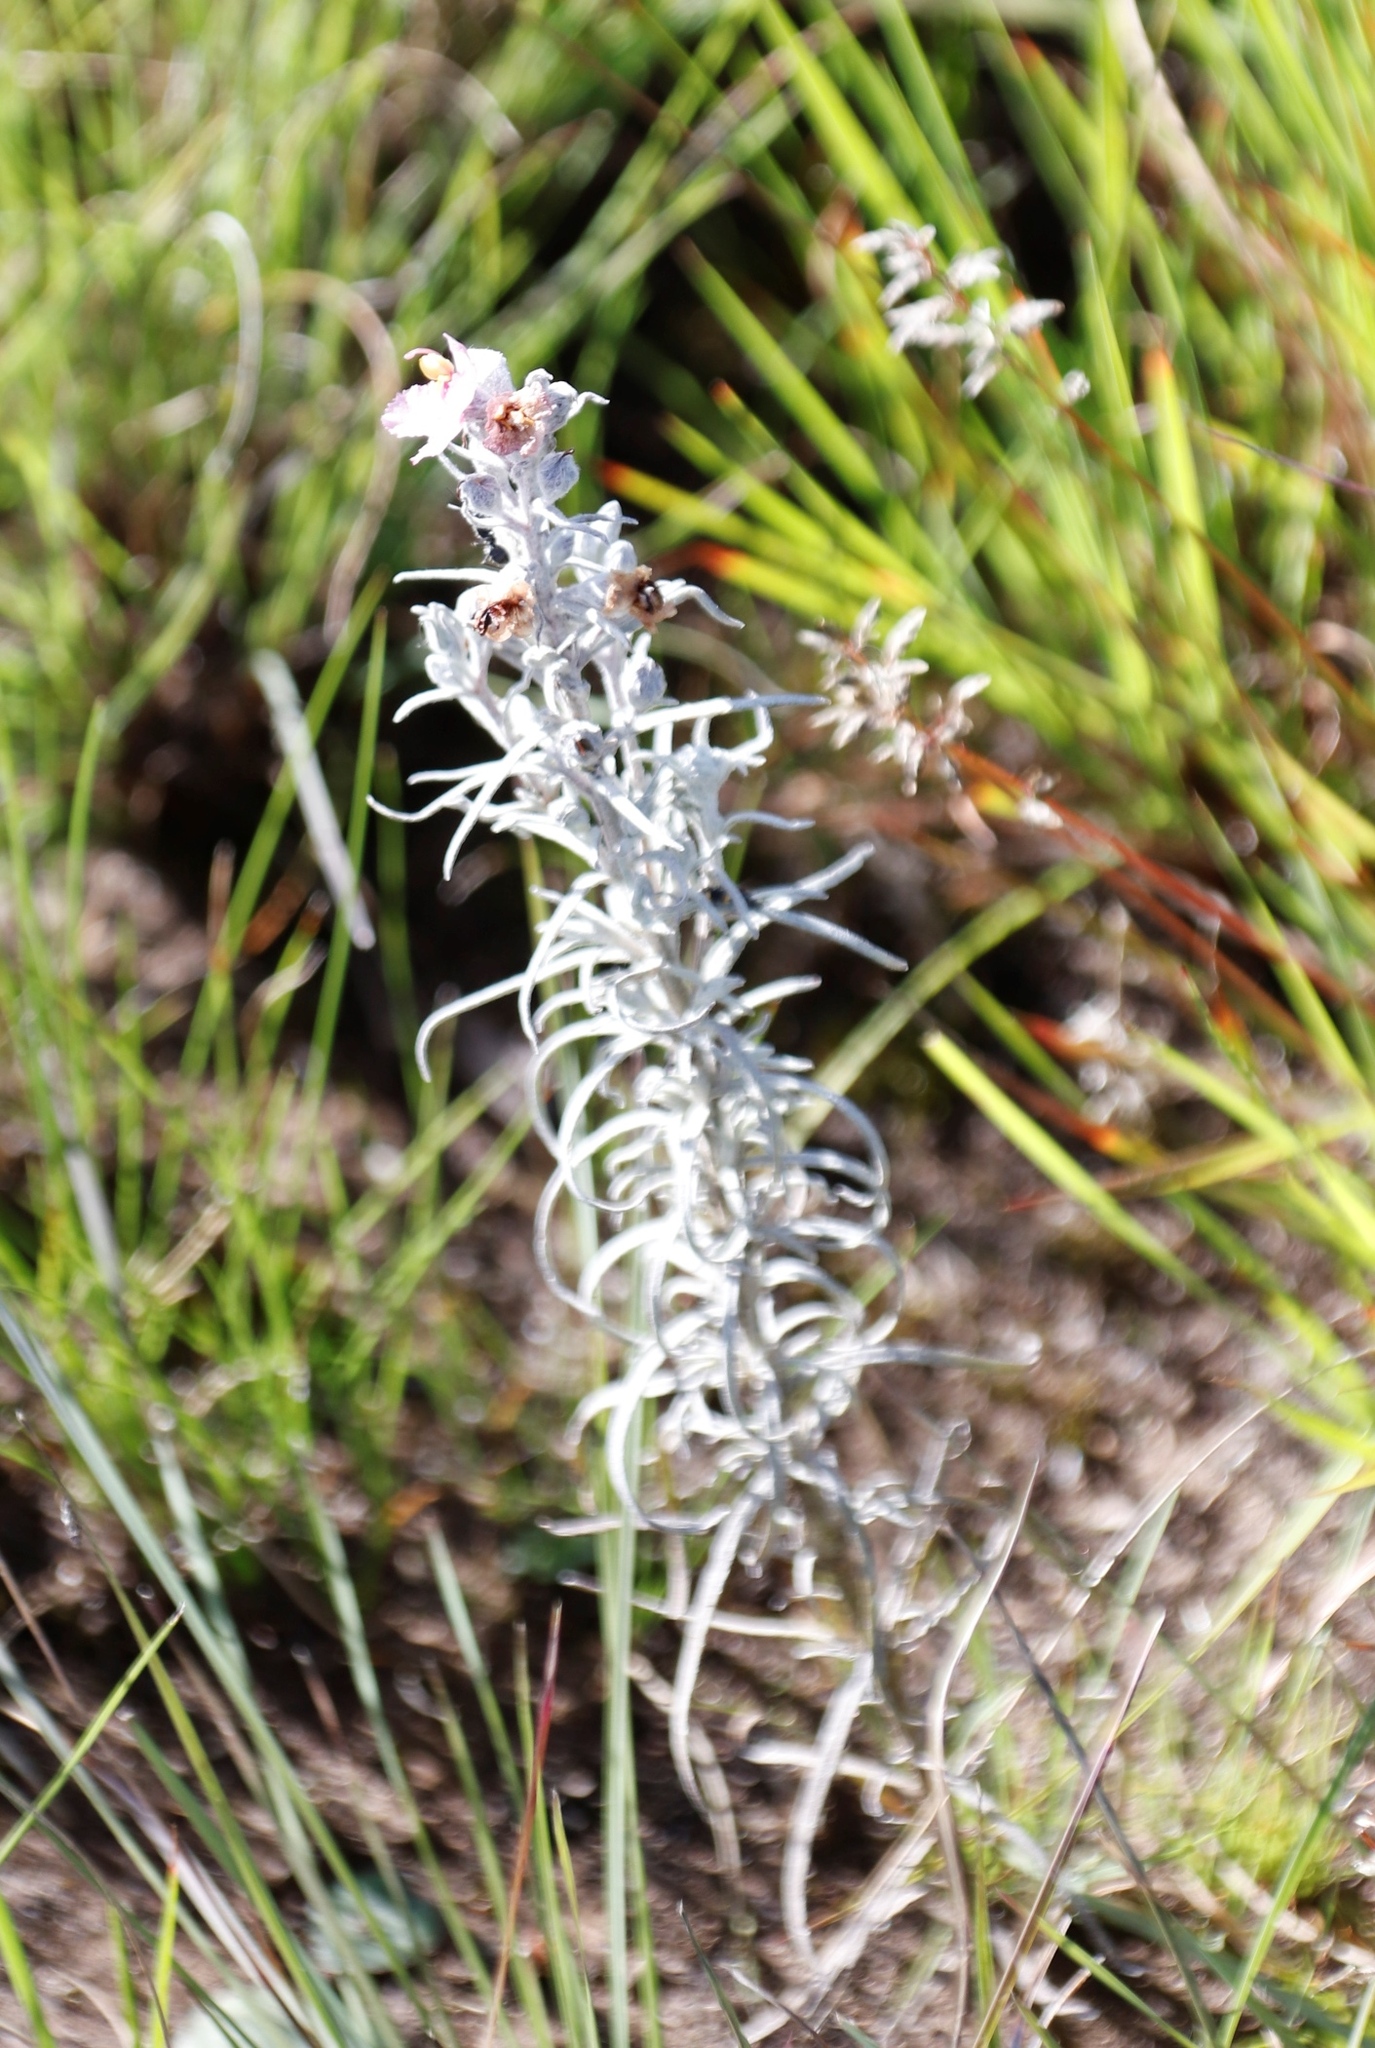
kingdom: Plantae
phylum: Tracheophyta
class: Magnoliopsida
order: Lamiales
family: Orobanchaceae
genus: Sopubia
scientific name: Sopubia cana
